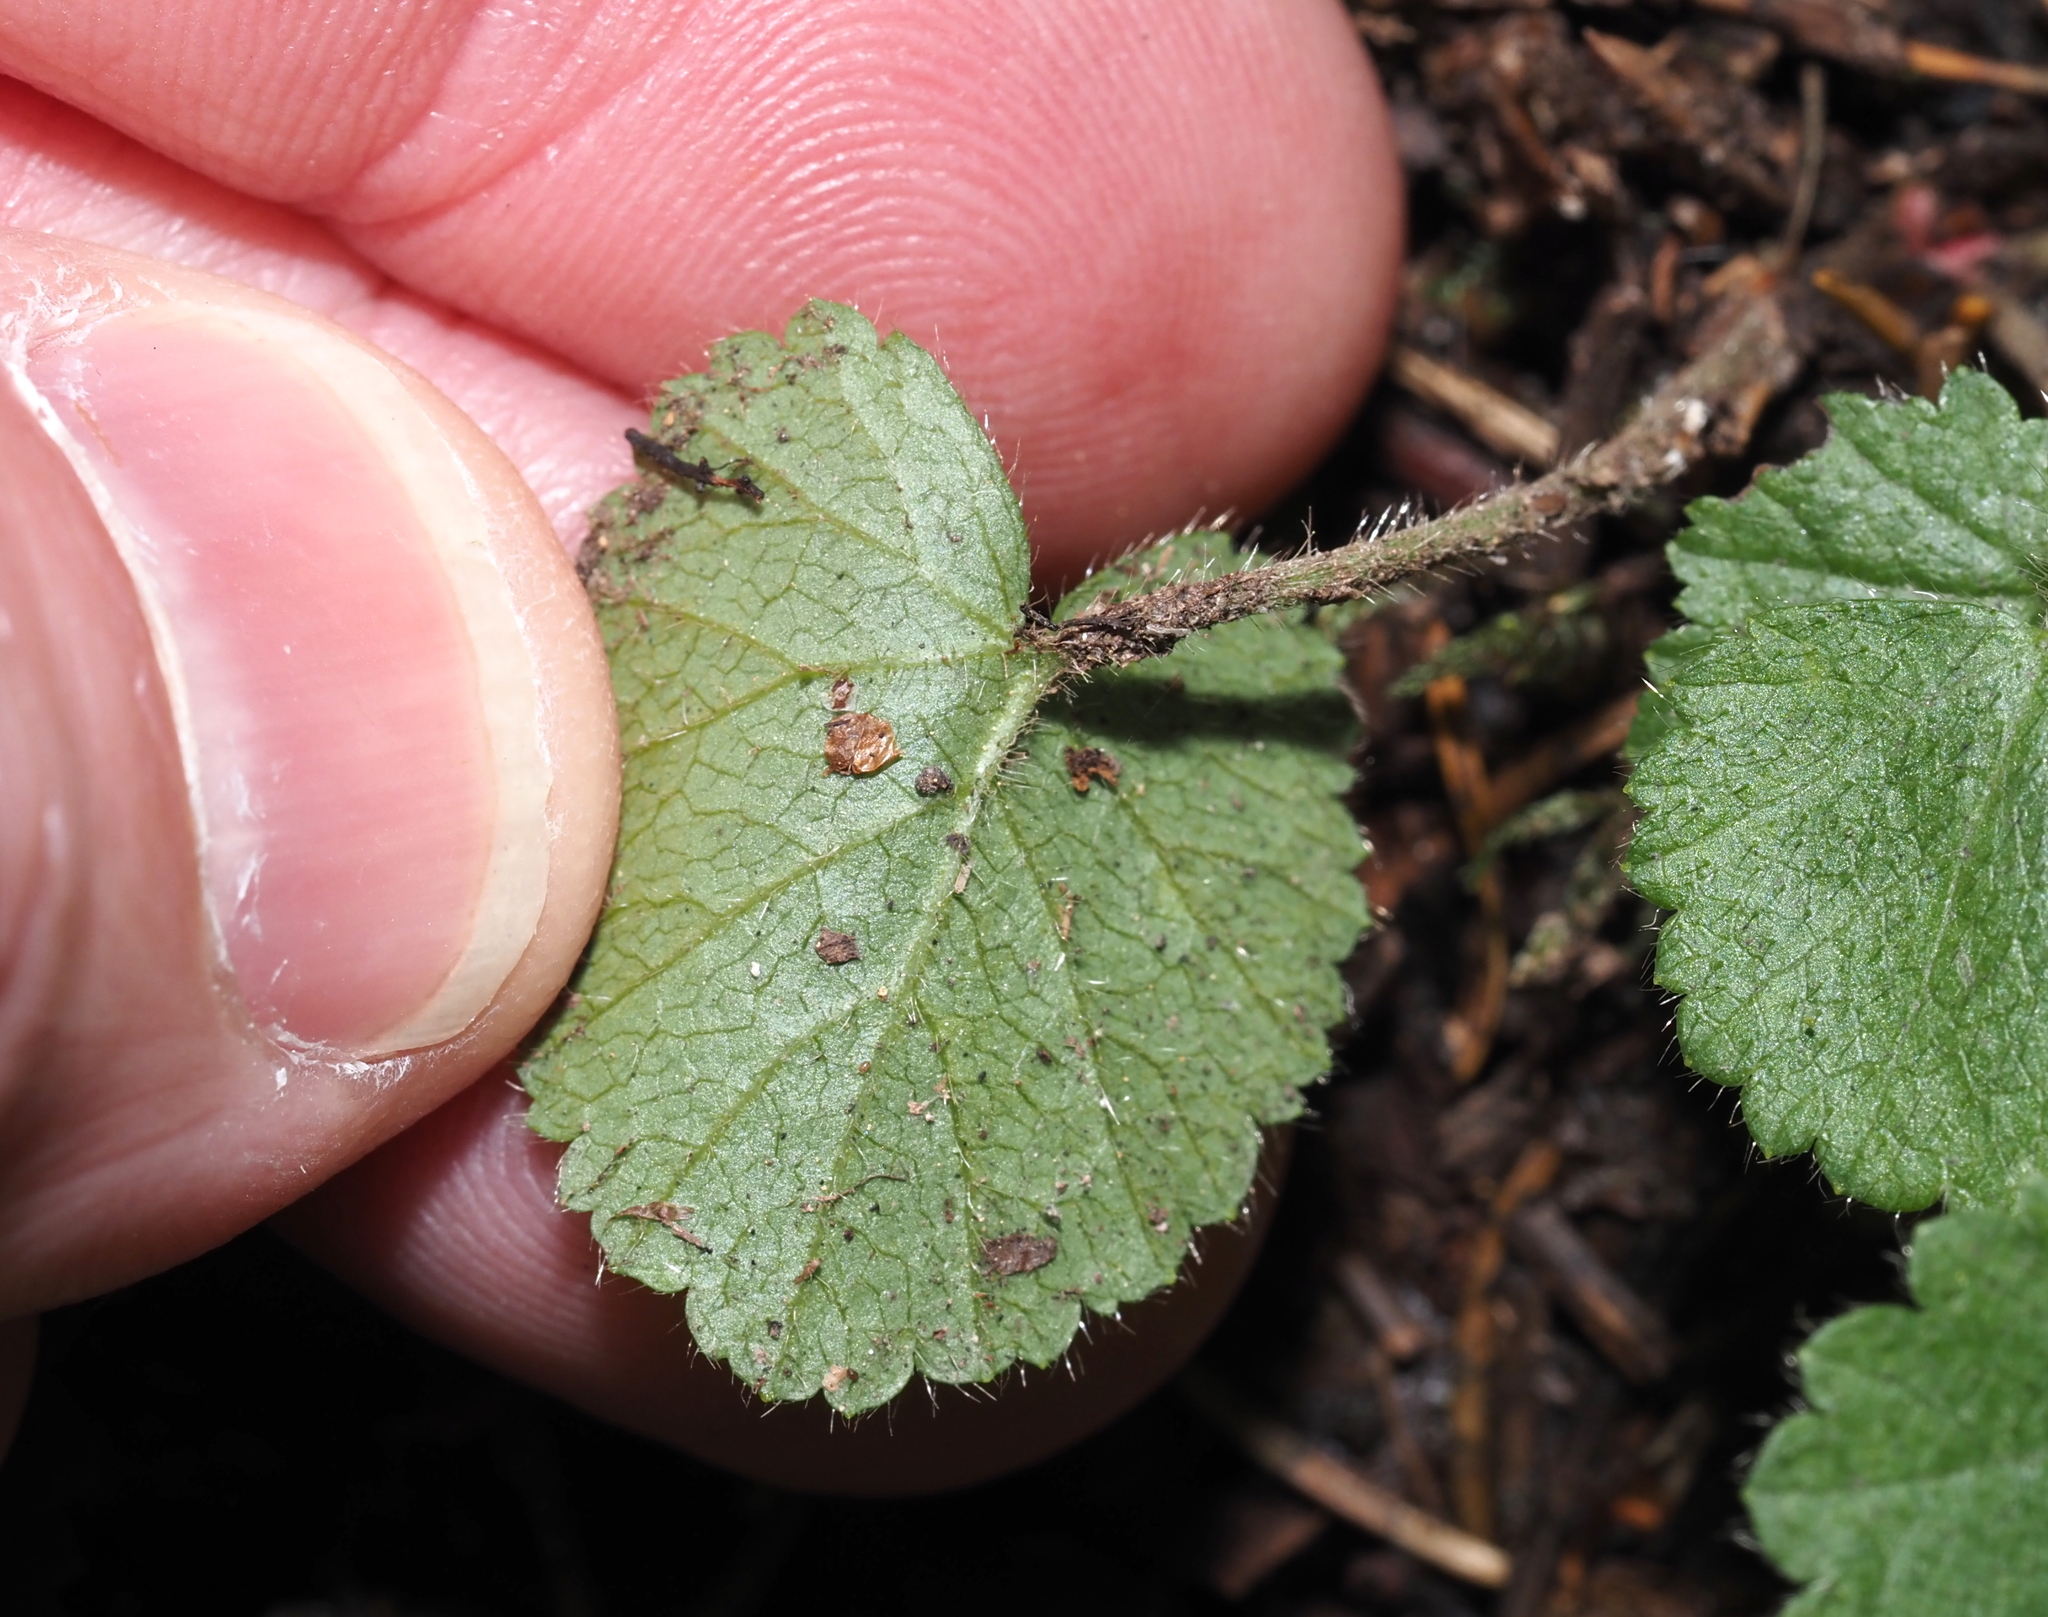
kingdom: Plantae
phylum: Tracheophyta
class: Magnoliopsida
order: Rosales
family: Rosaceae
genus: Dalibarda
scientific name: Dalibarda repens
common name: Dewdrop
